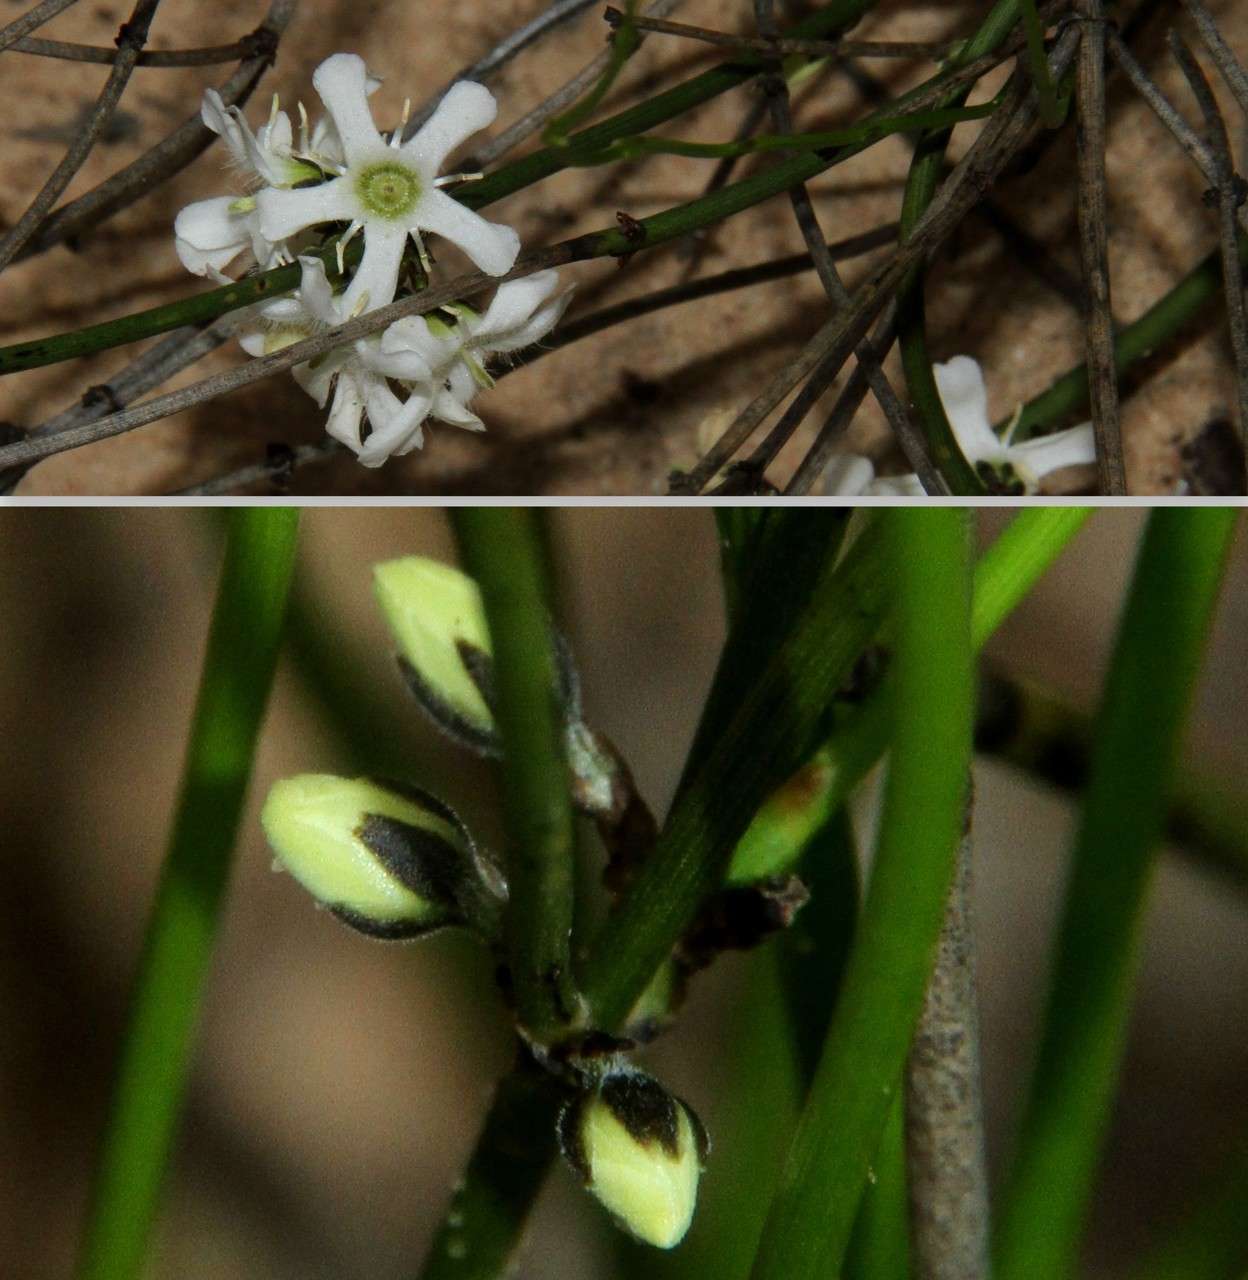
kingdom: Plantae
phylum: Tracheophyta
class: Magnoliopsida
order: Gentianales
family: Loganiaceae
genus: Orianthera
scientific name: Orianthera nuda
